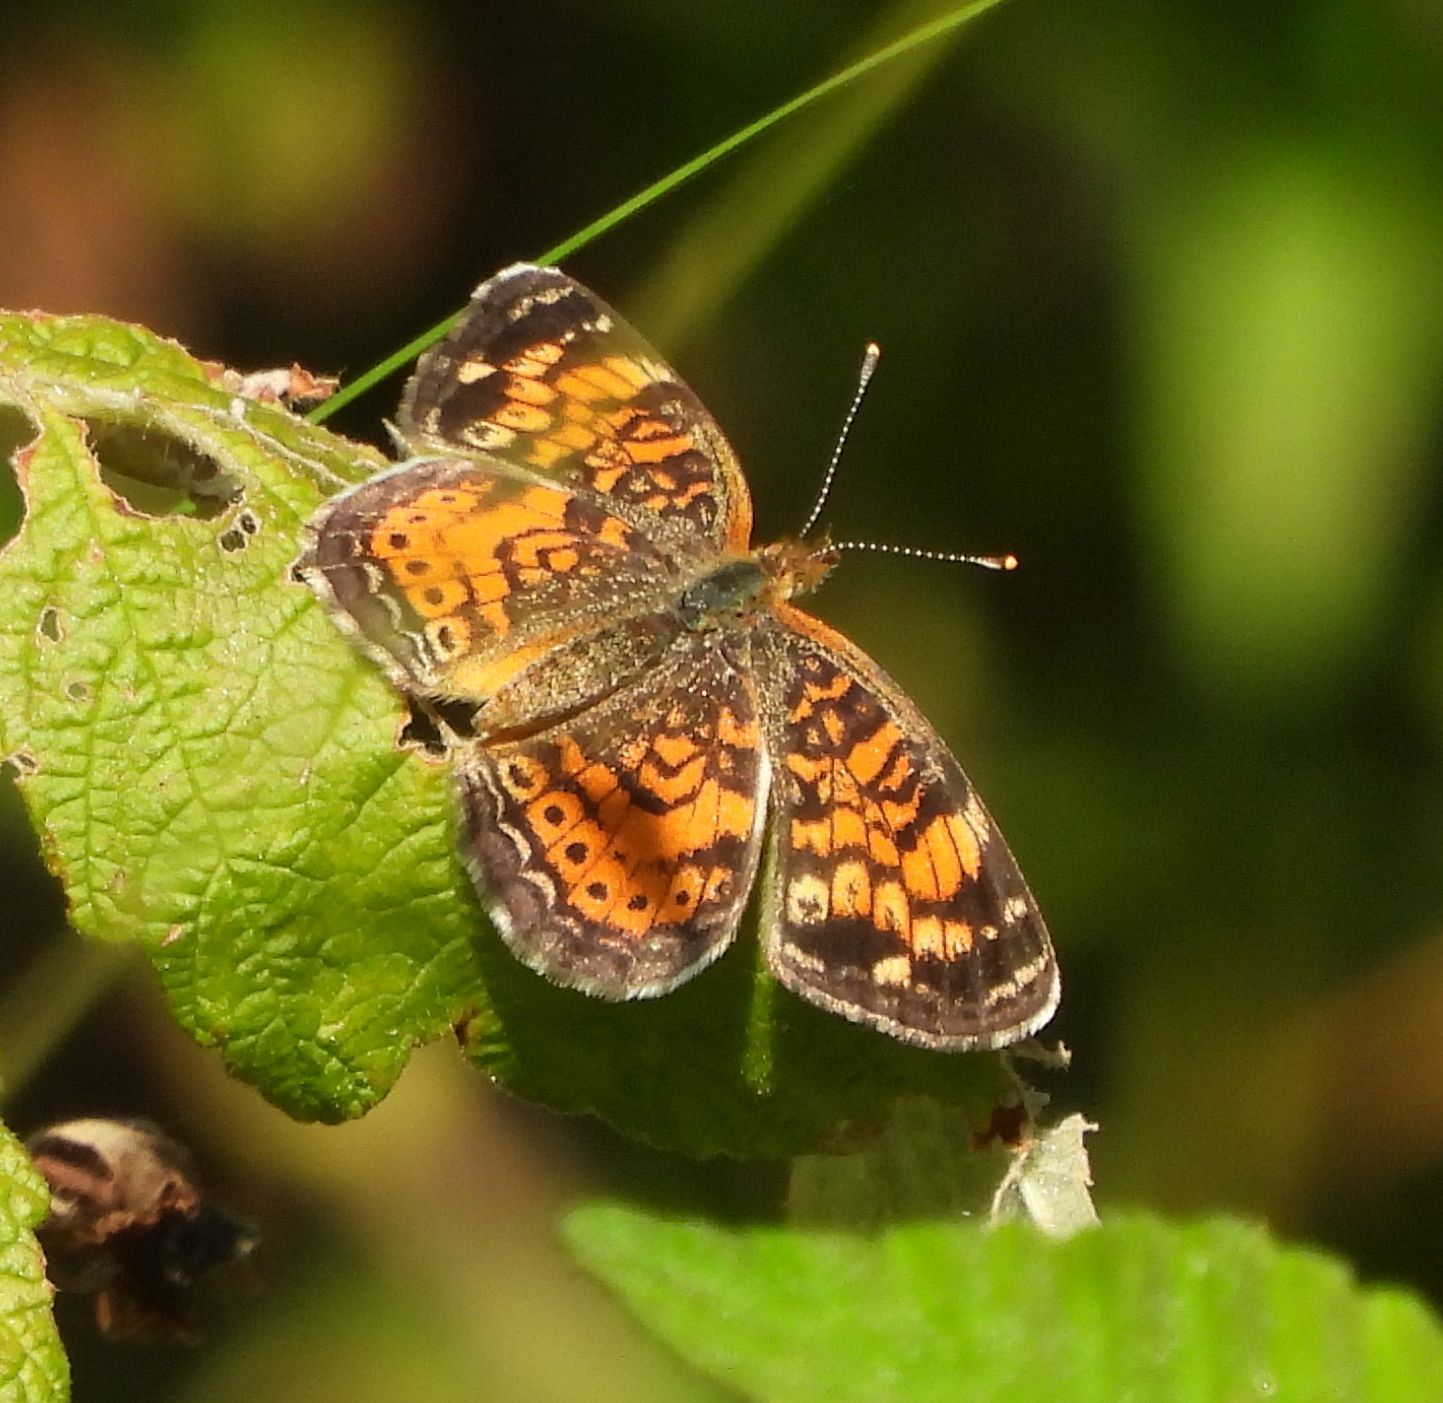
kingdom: Animalia
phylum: Arthropoda
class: Insecta
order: Lepidoptera
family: Nymphalidae
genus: Phyciodes
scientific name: Phyciodes tharos
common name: Pearl crescent
